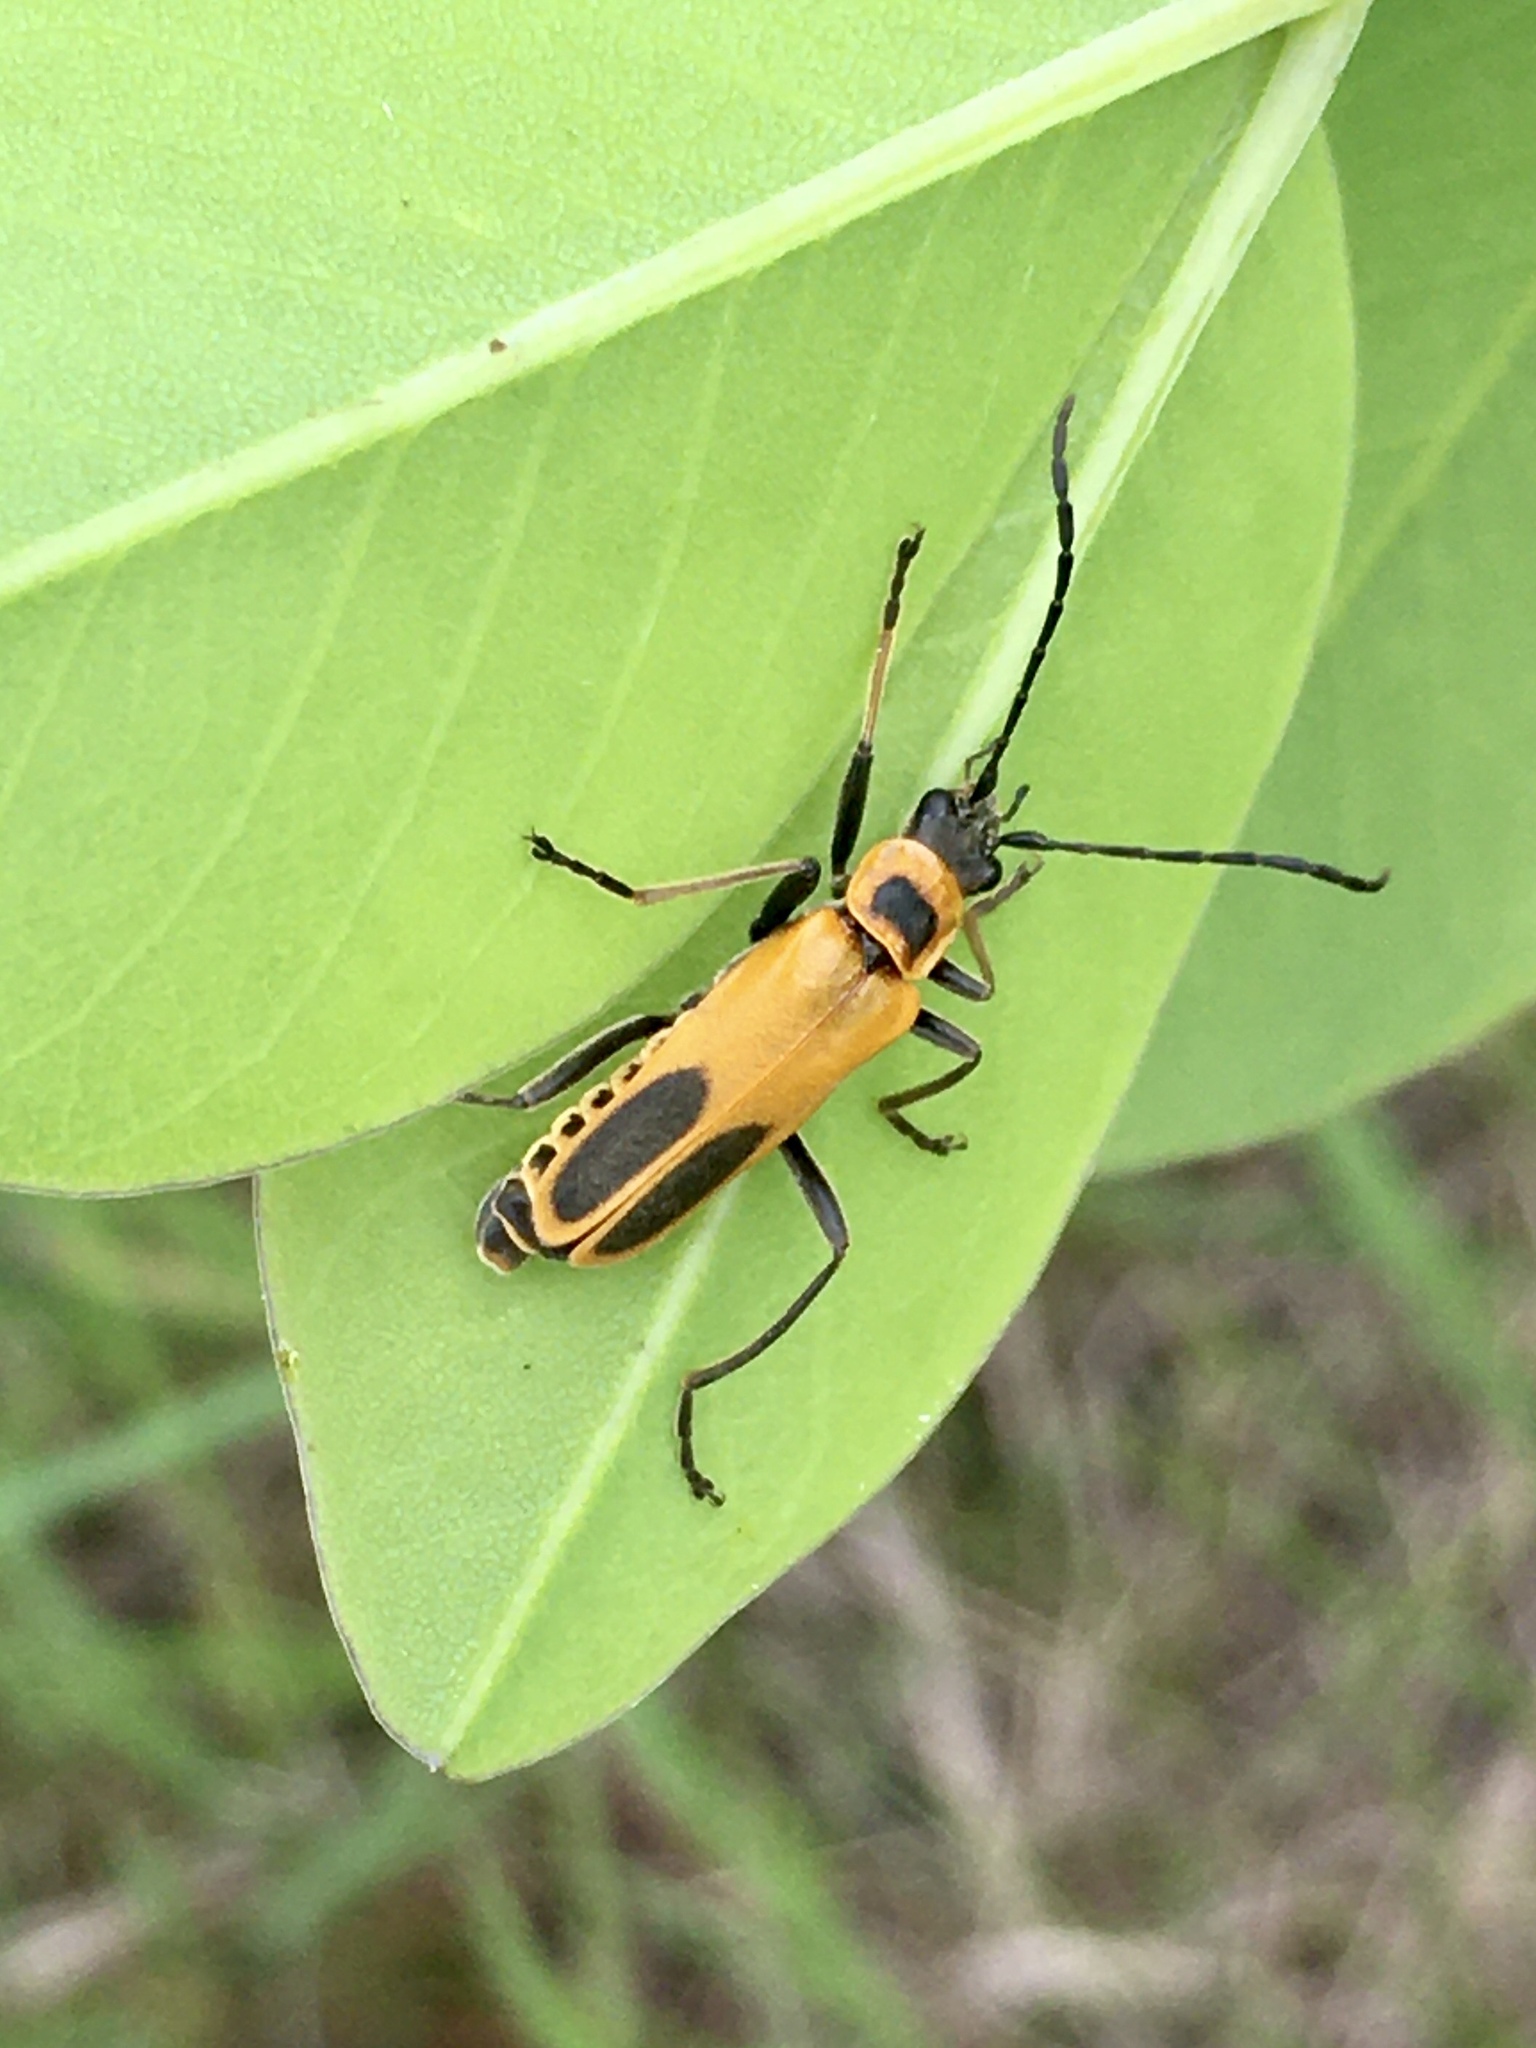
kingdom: Animalia
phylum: Arthropoda
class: Insecta
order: Coleoptera
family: Cantharidae
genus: Chauliognathus
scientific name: Chauliognathus pensylvanicus
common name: Goldenrod soldier beetle
